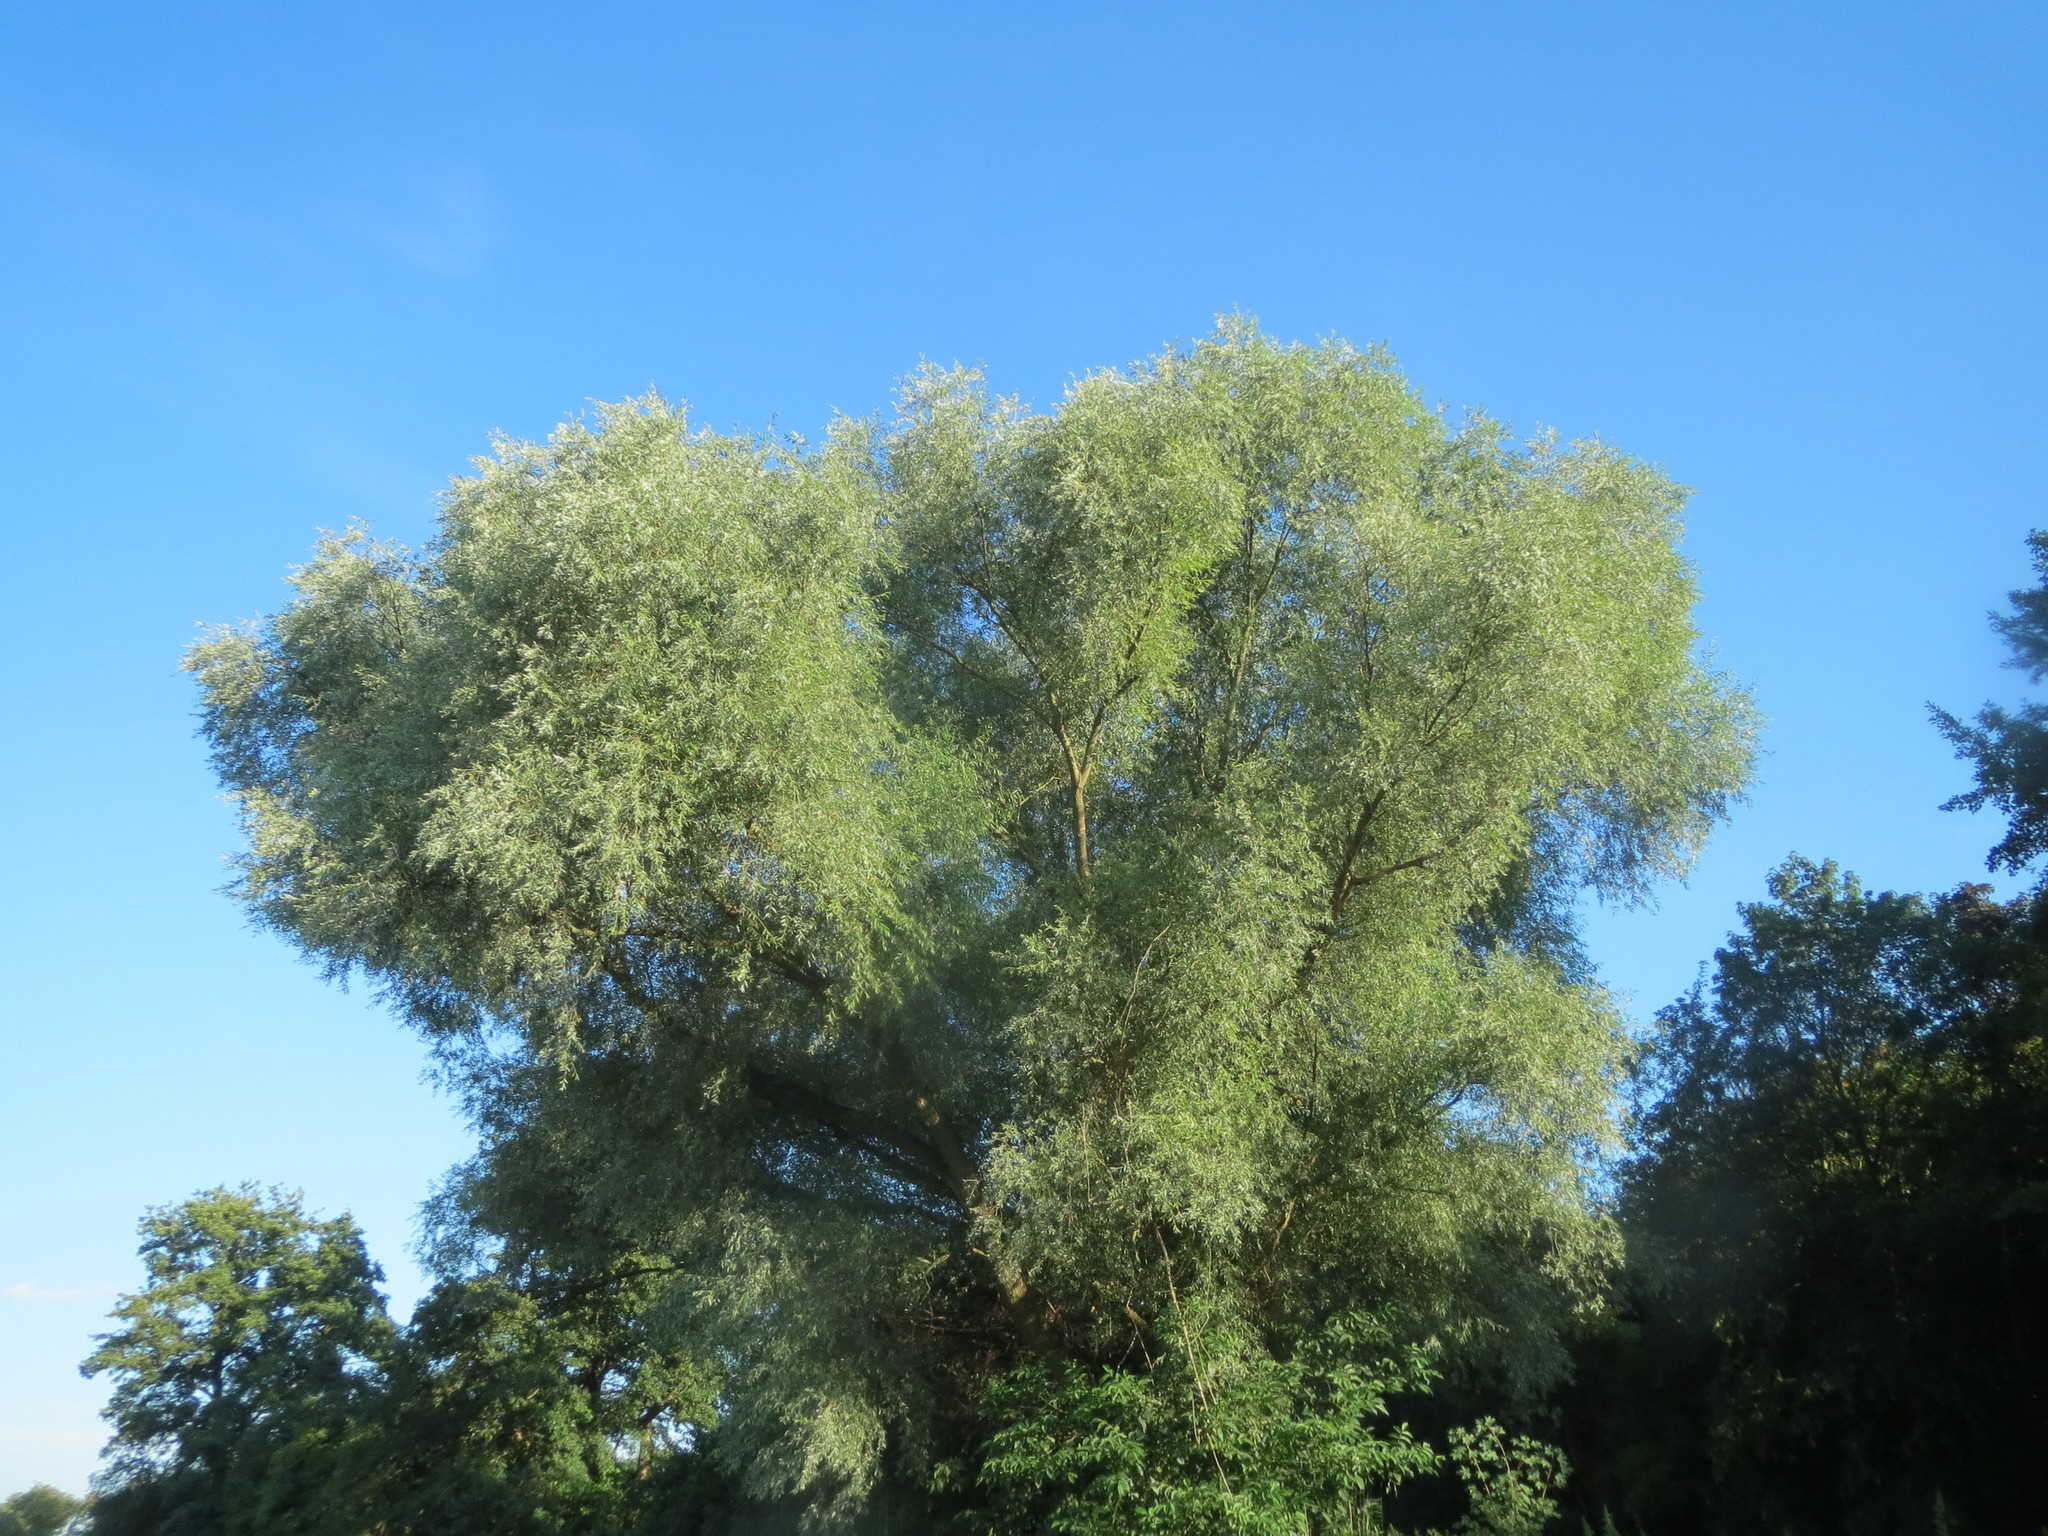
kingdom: Plantae
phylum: Tracheophyta
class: Magnoliopsida
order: Malpighiales
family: Salicaceae
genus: Salix
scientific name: Salix alba
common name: White willow
